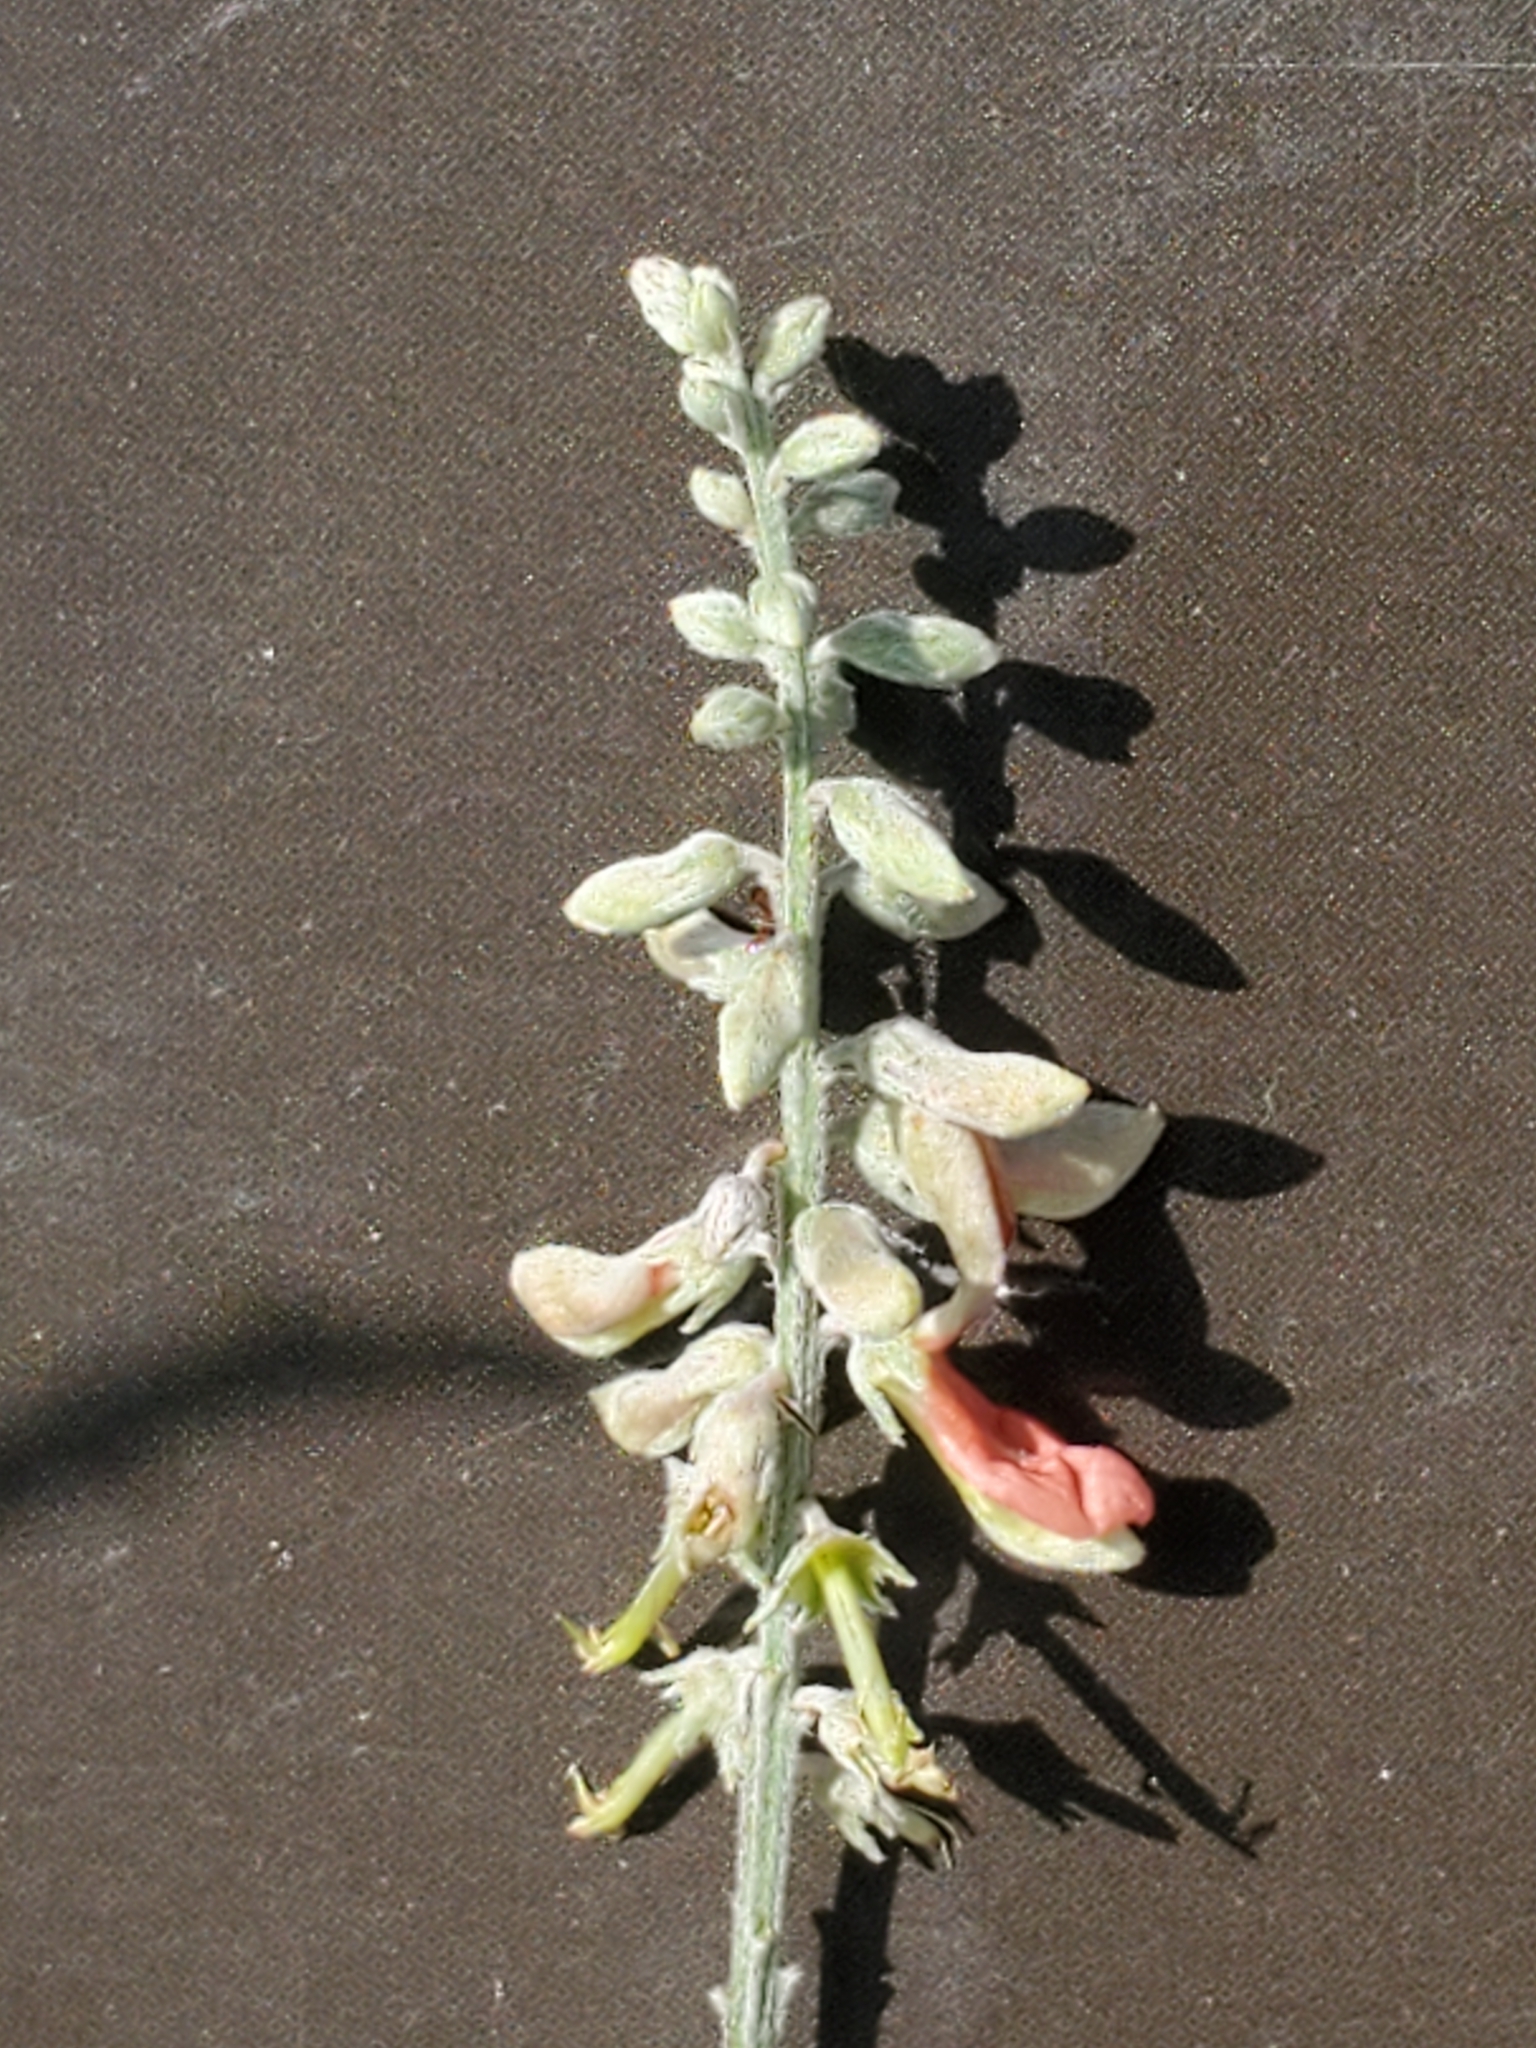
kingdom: Plantae
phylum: Tracheophyta
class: Magnoliopsida
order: Fabales
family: Fabaceae
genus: Indigofera
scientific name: Indigofera lindheimeriana
